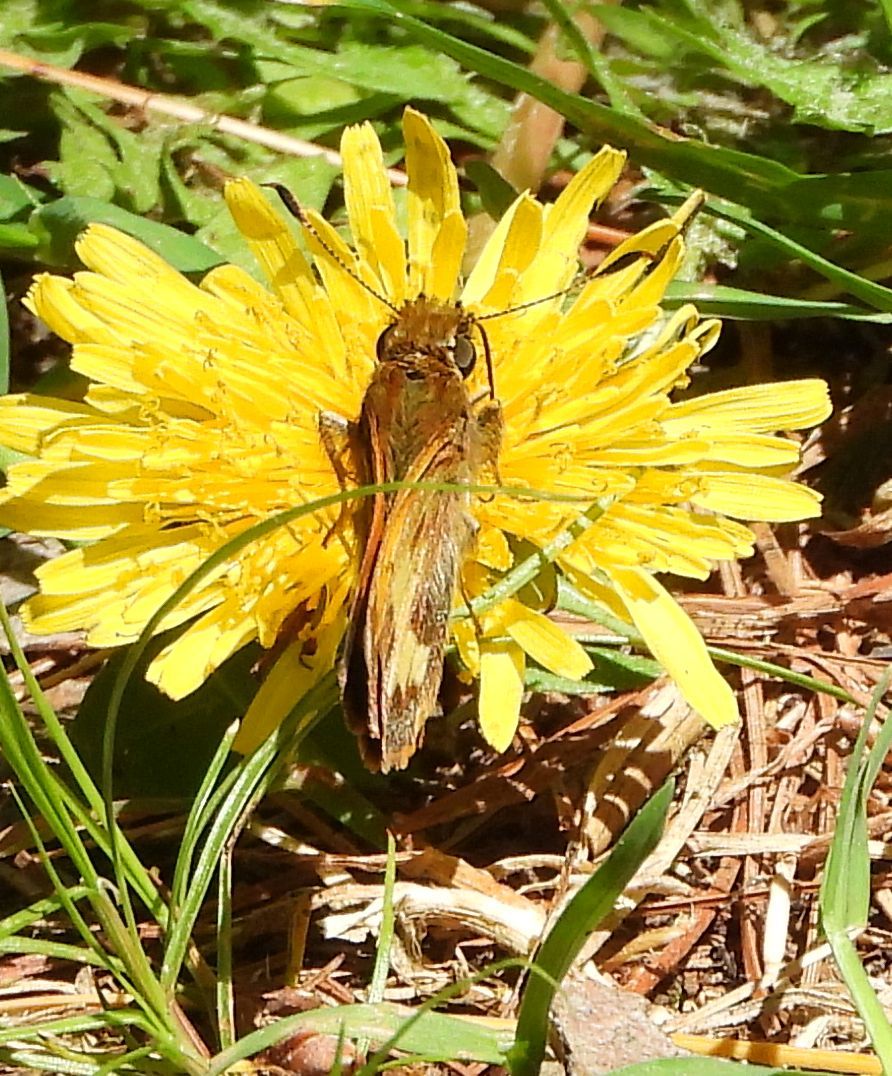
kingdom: Animalia
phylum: Arthropoda
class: Insecta
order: Lepidoptera
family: Hesperiidae
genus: Lon
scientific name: Lon hobomok
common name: Hobomok skipper
